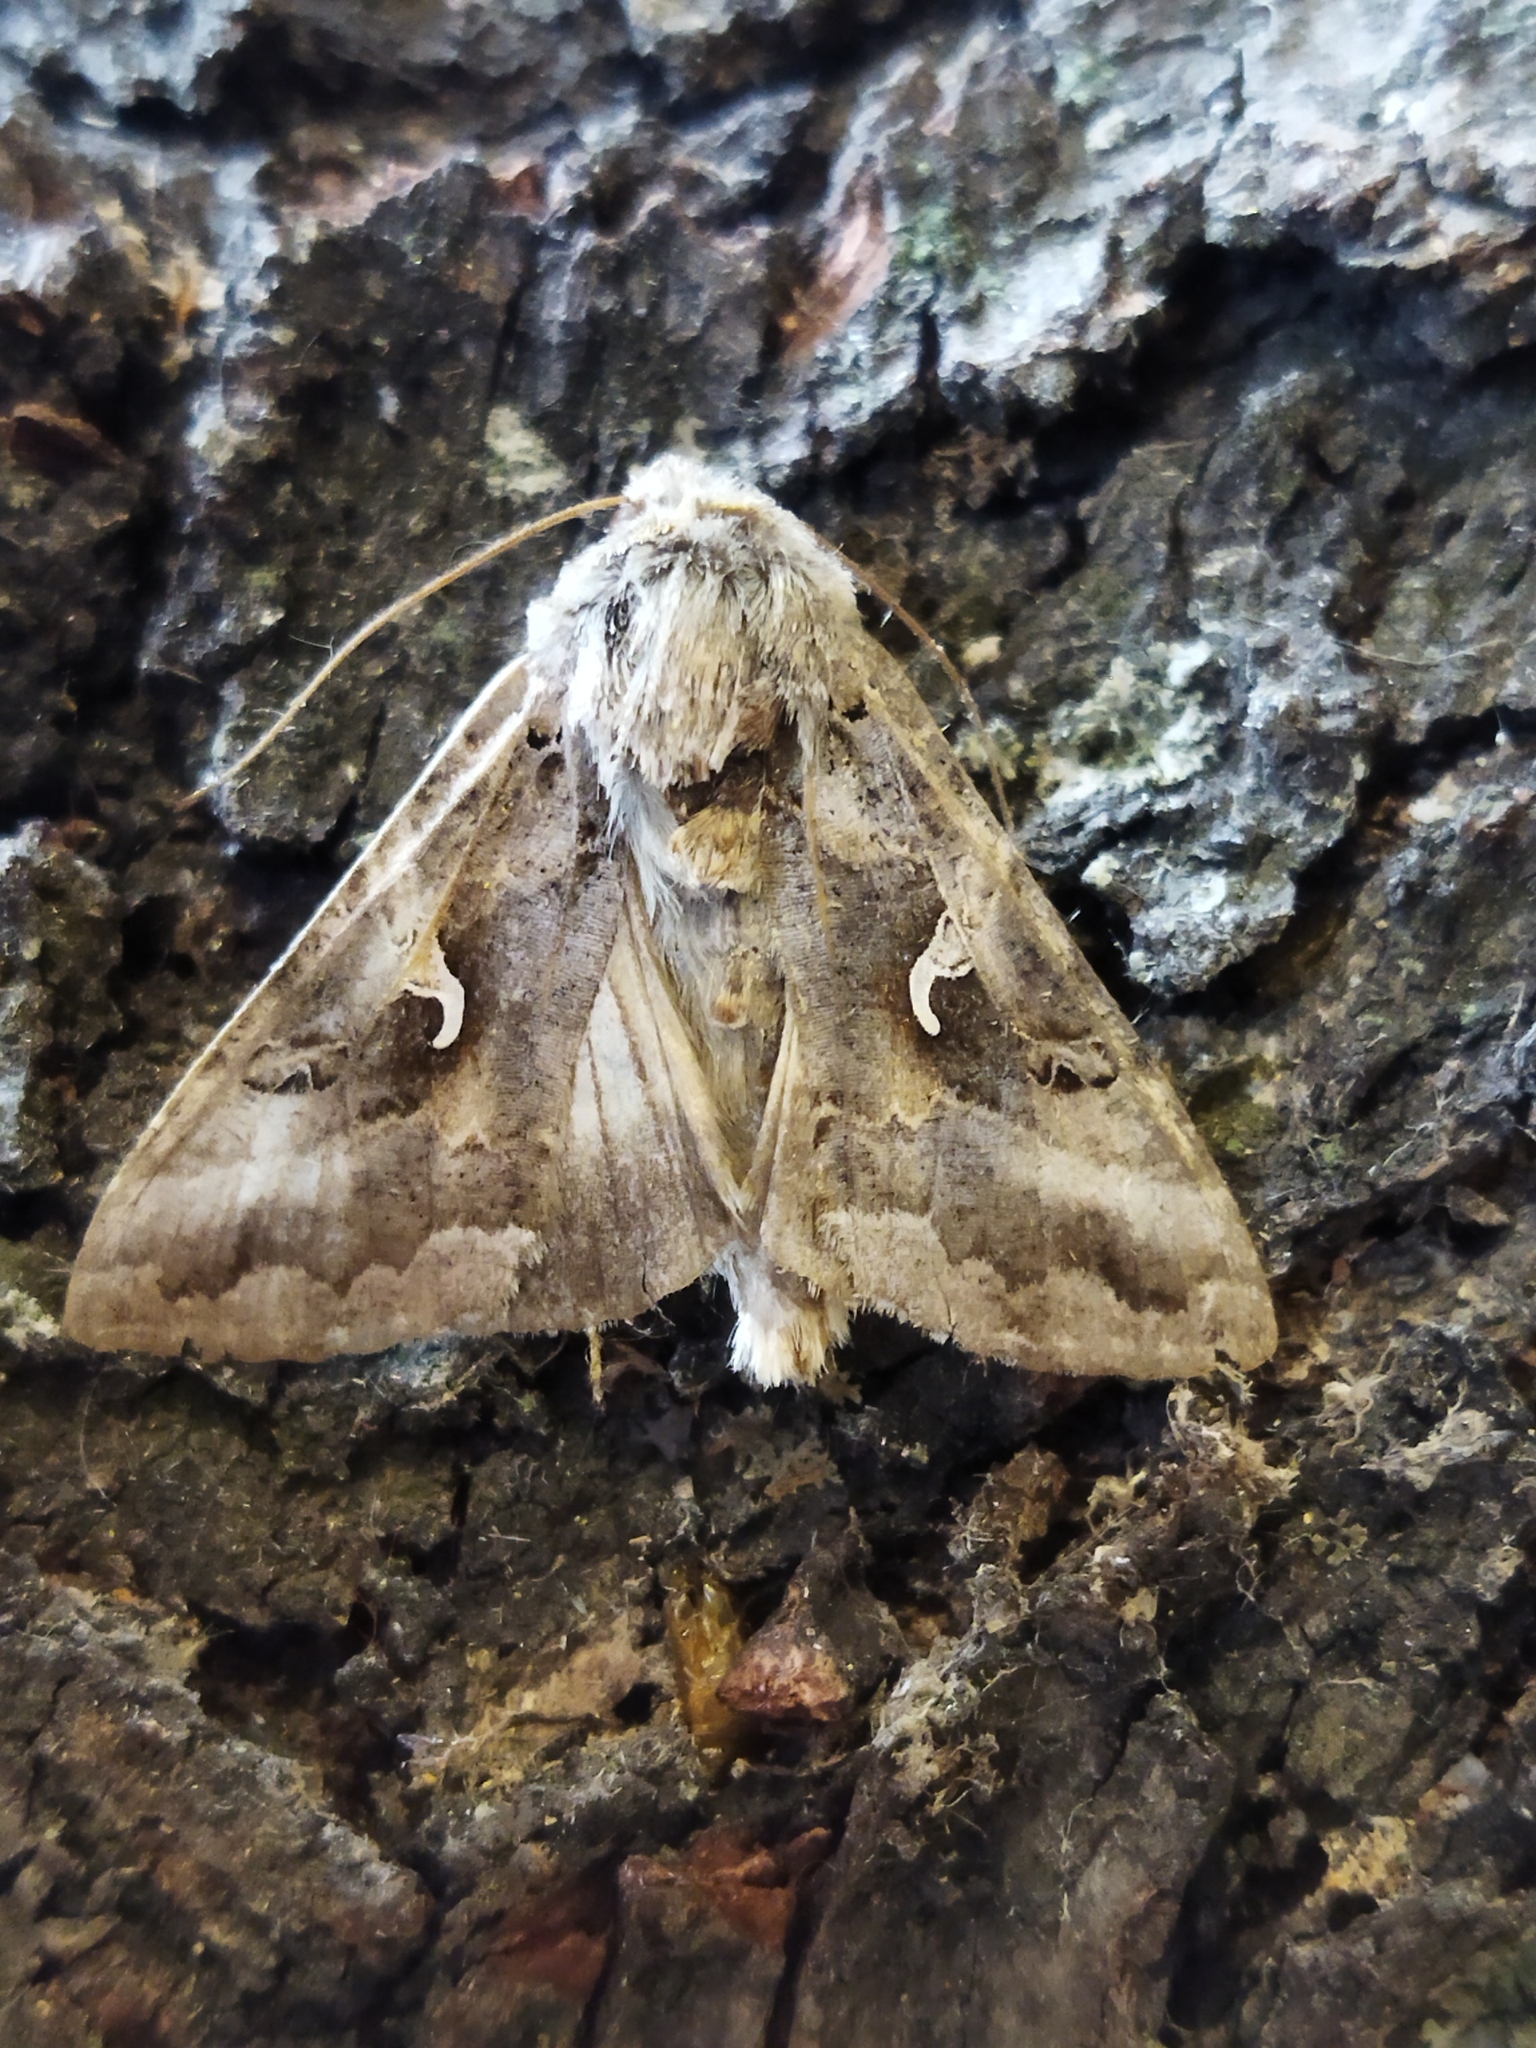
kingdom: Animalia
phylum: Arthropoda
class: Insecta
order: Lepidoptera
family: Noctuidae
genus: Autographa
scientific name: Autographa gamma
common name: Silver y
